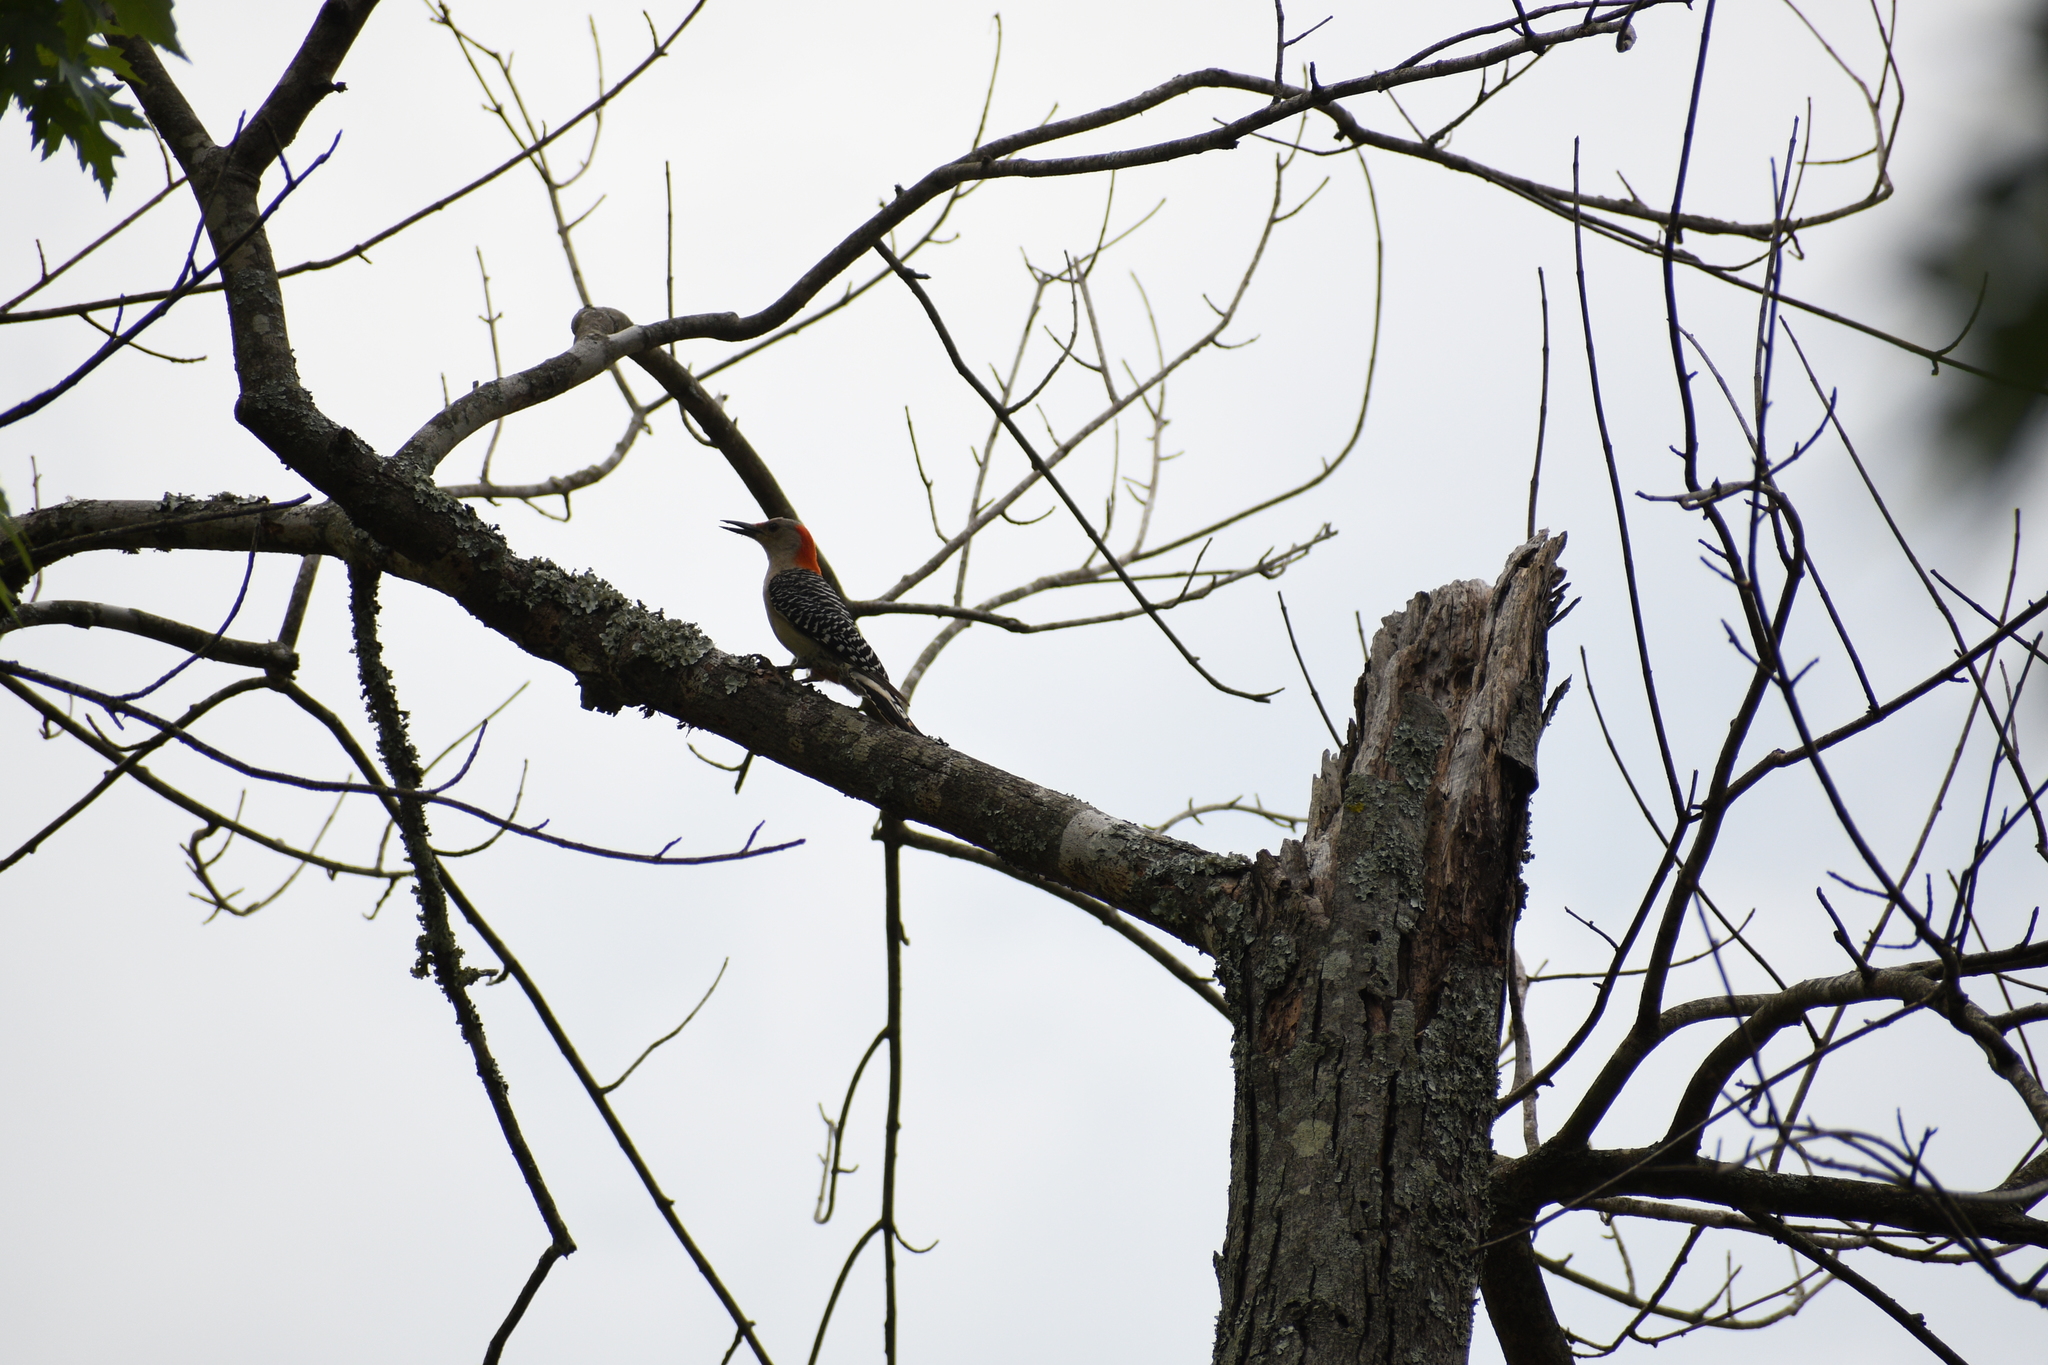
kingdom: Animalia
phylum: Chordata
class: Aves
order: Piciformes
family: Picidae
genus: Melanerpes
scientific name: Melanerpes carolinus
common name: Red-bellied woodpecker
